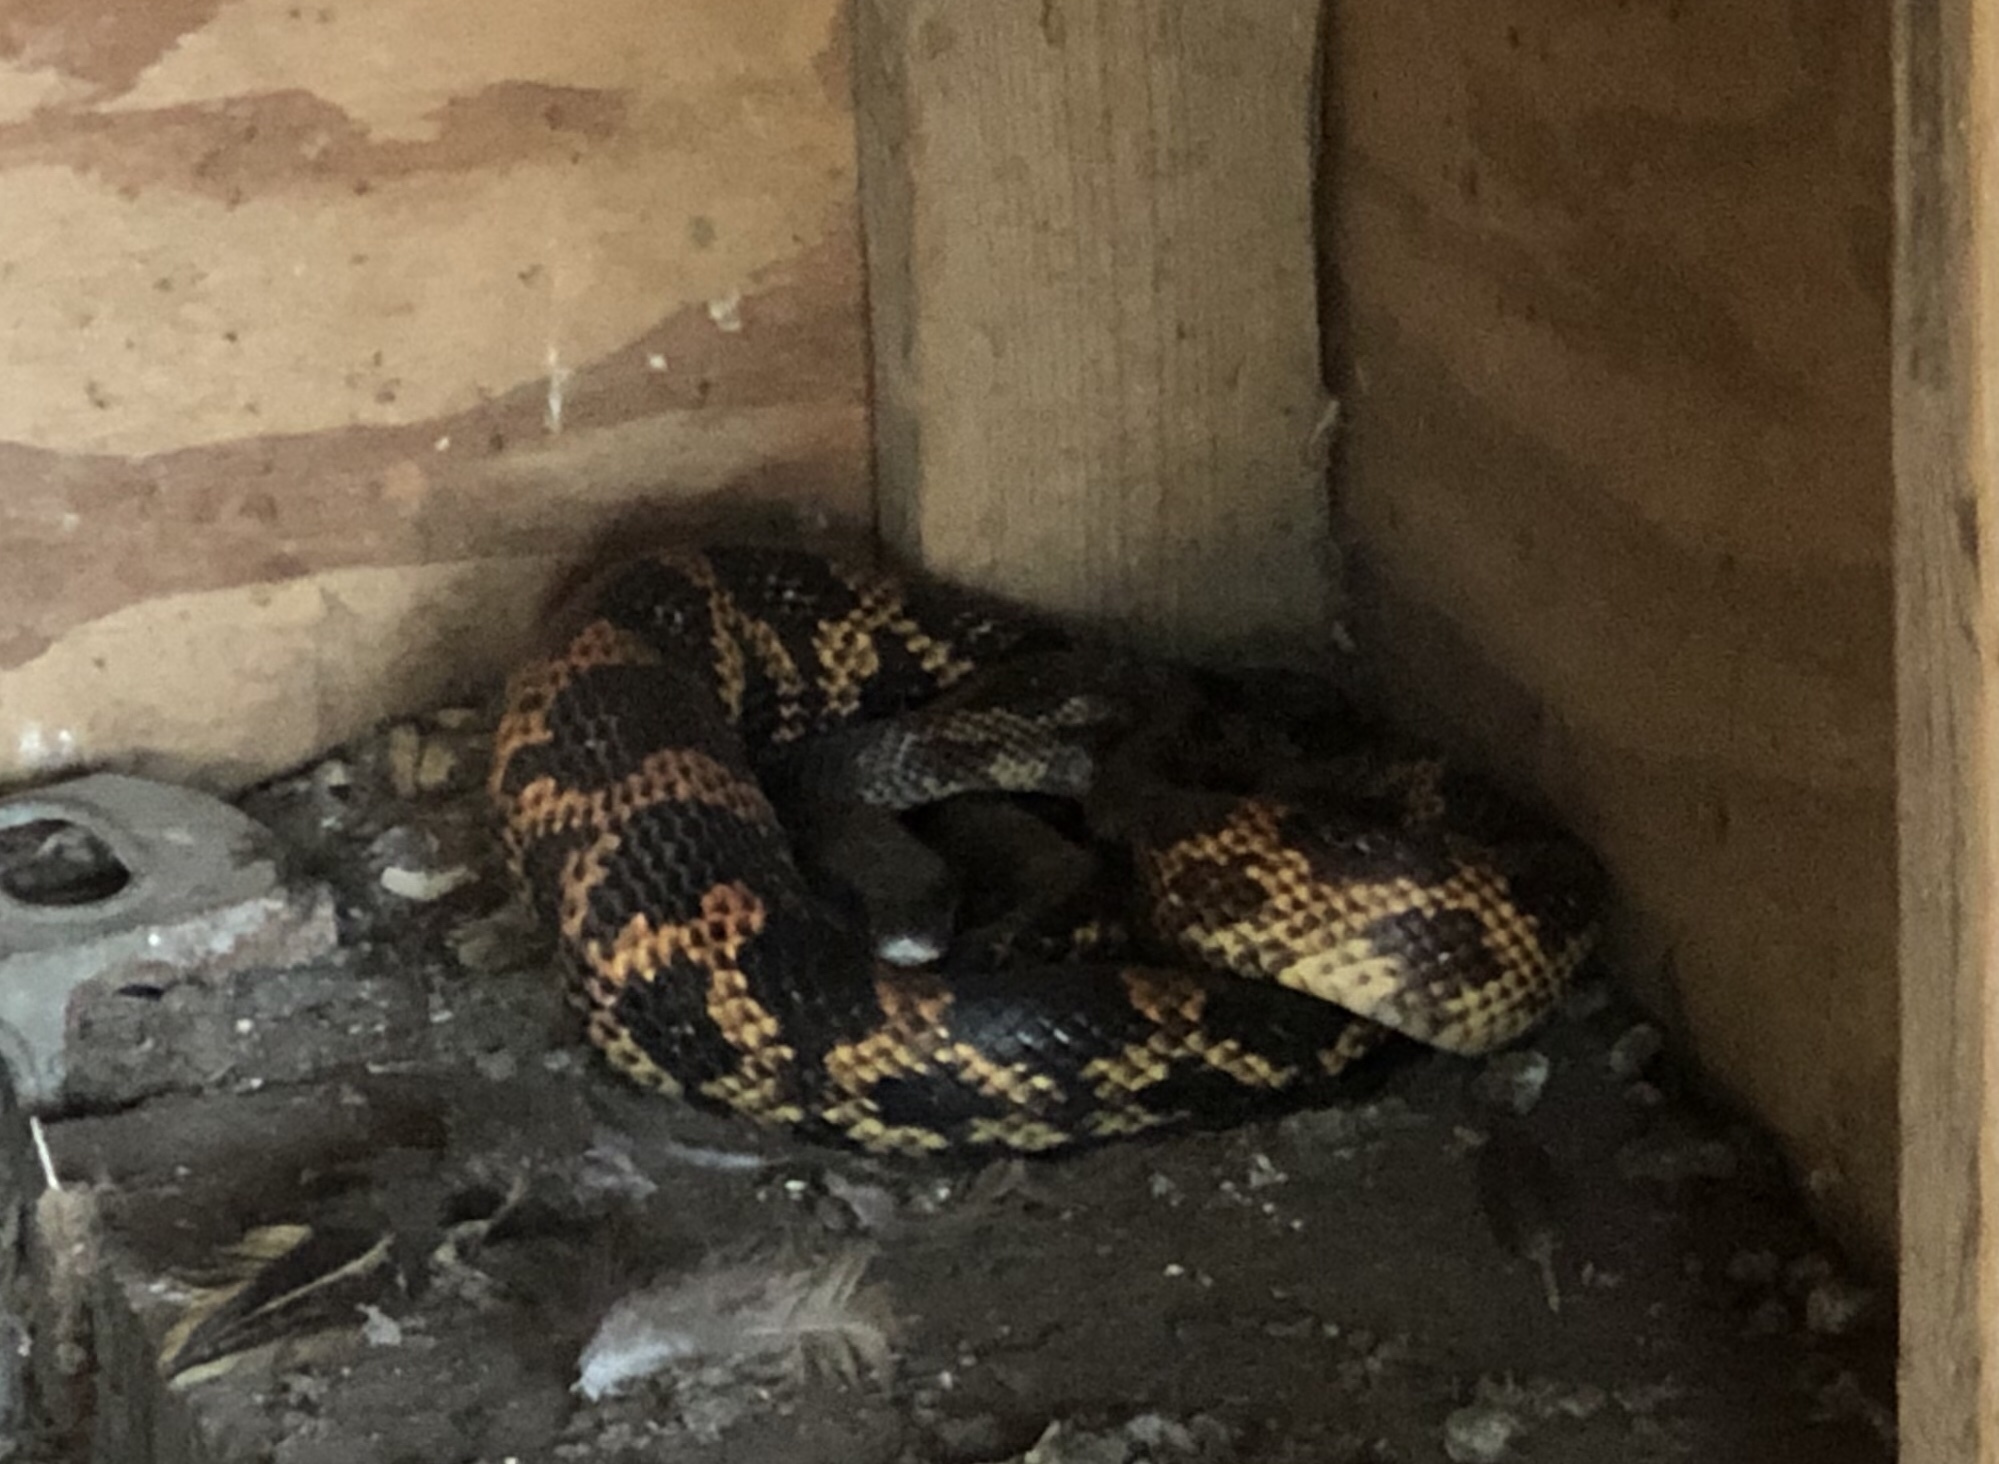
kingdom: Animalia
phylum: Chordata
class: Squamata
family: Colubridae
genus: Pantherophis
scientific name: Pantherophis obsoletus
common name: Black rat snake
